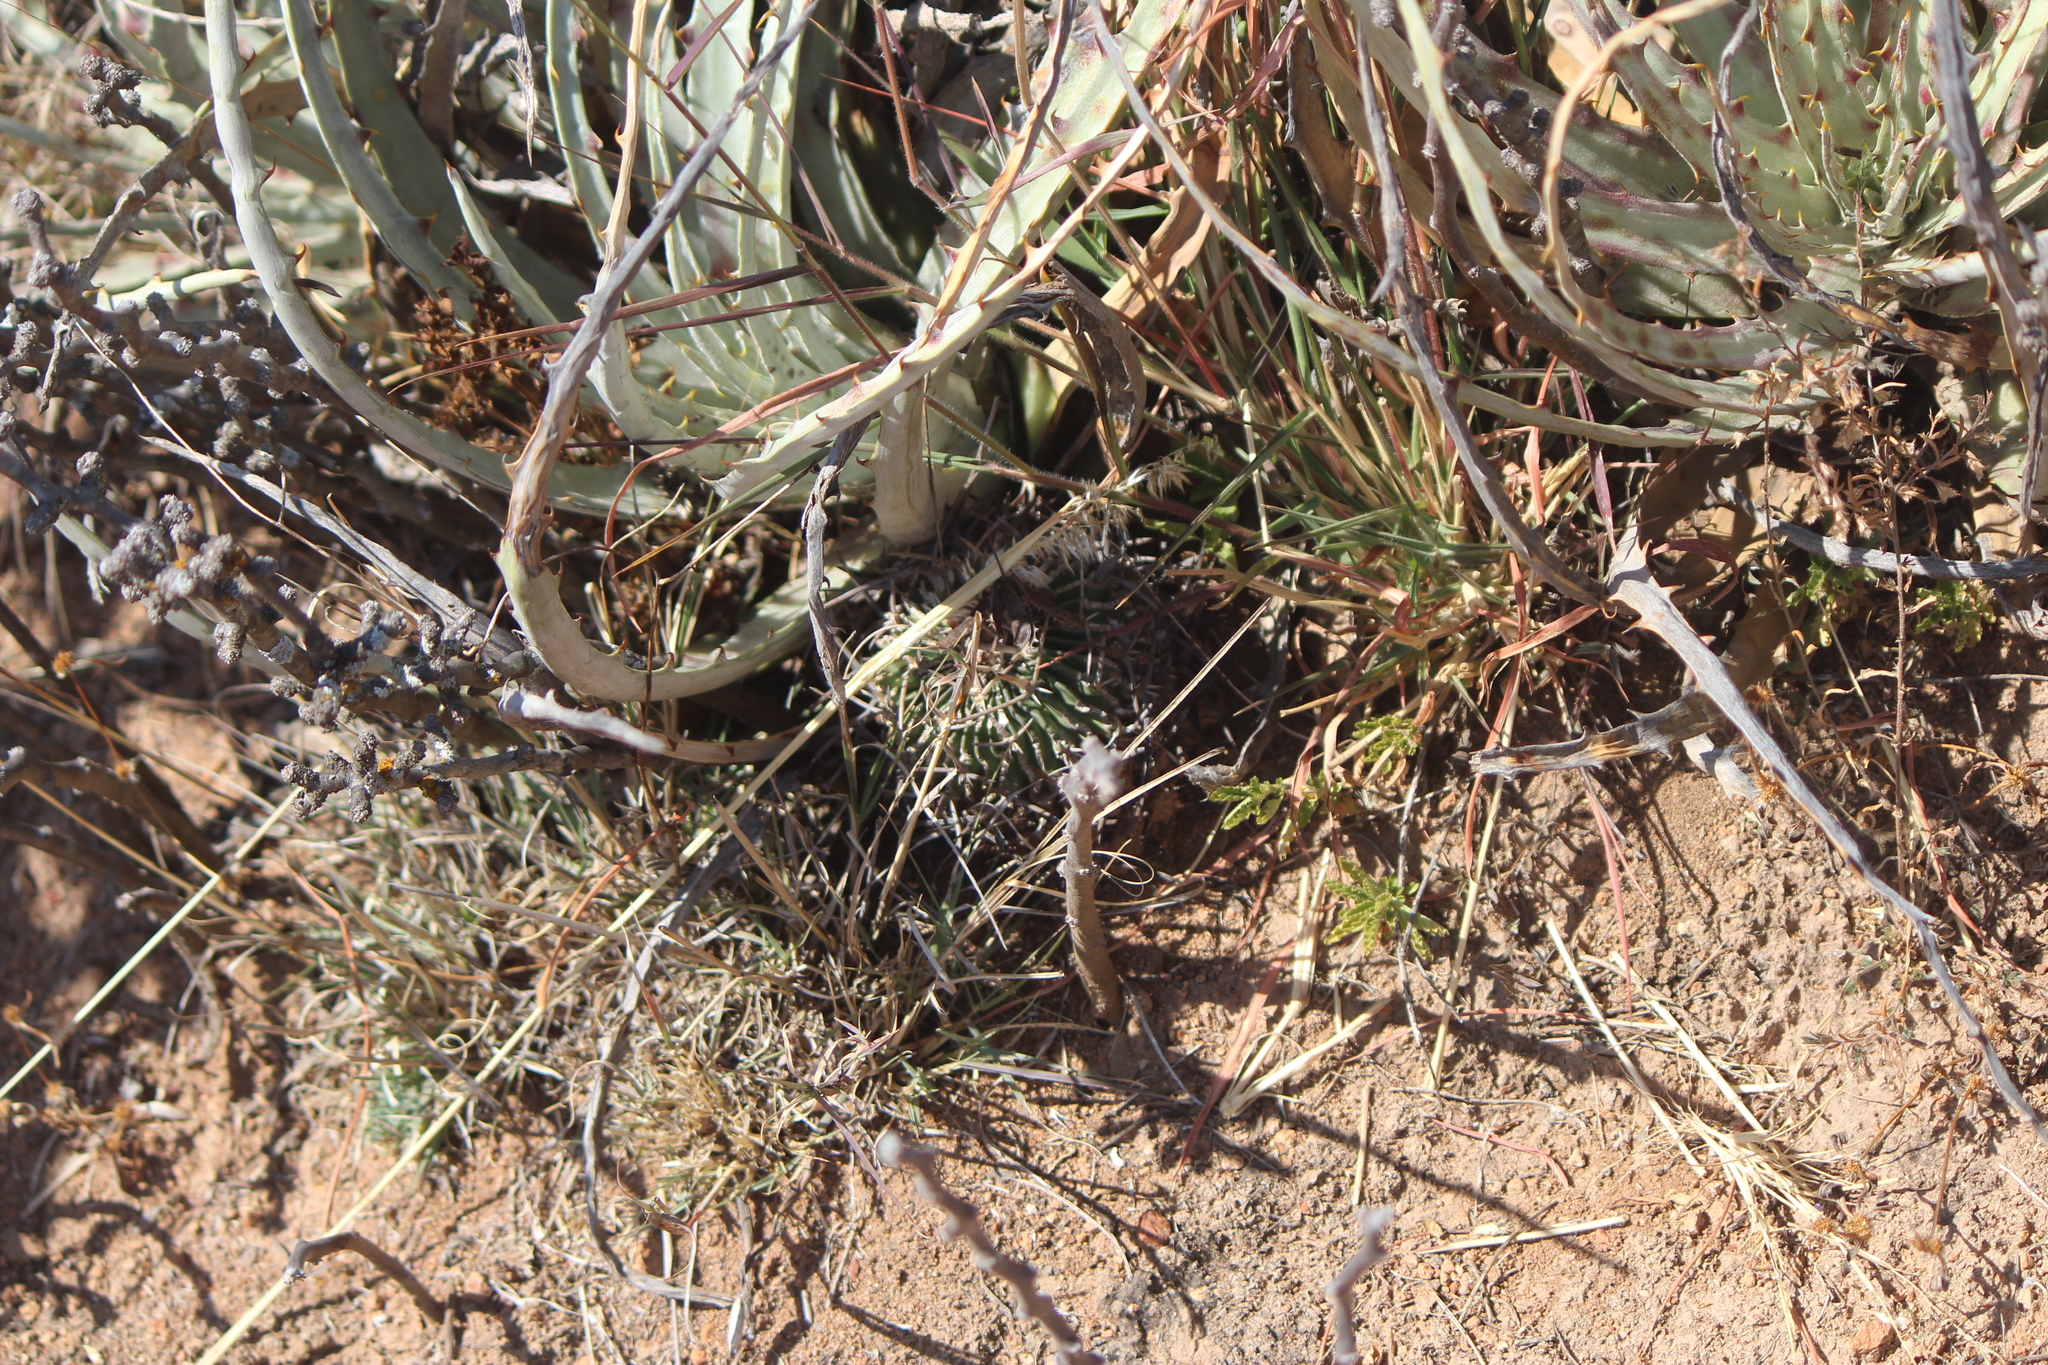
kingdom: Plantae
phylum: Tracheophyta
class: Magnoliopsida
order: Caryophyllales
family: Cactaceae
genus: Stenocactus
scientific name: Stenocactus obvallatus
